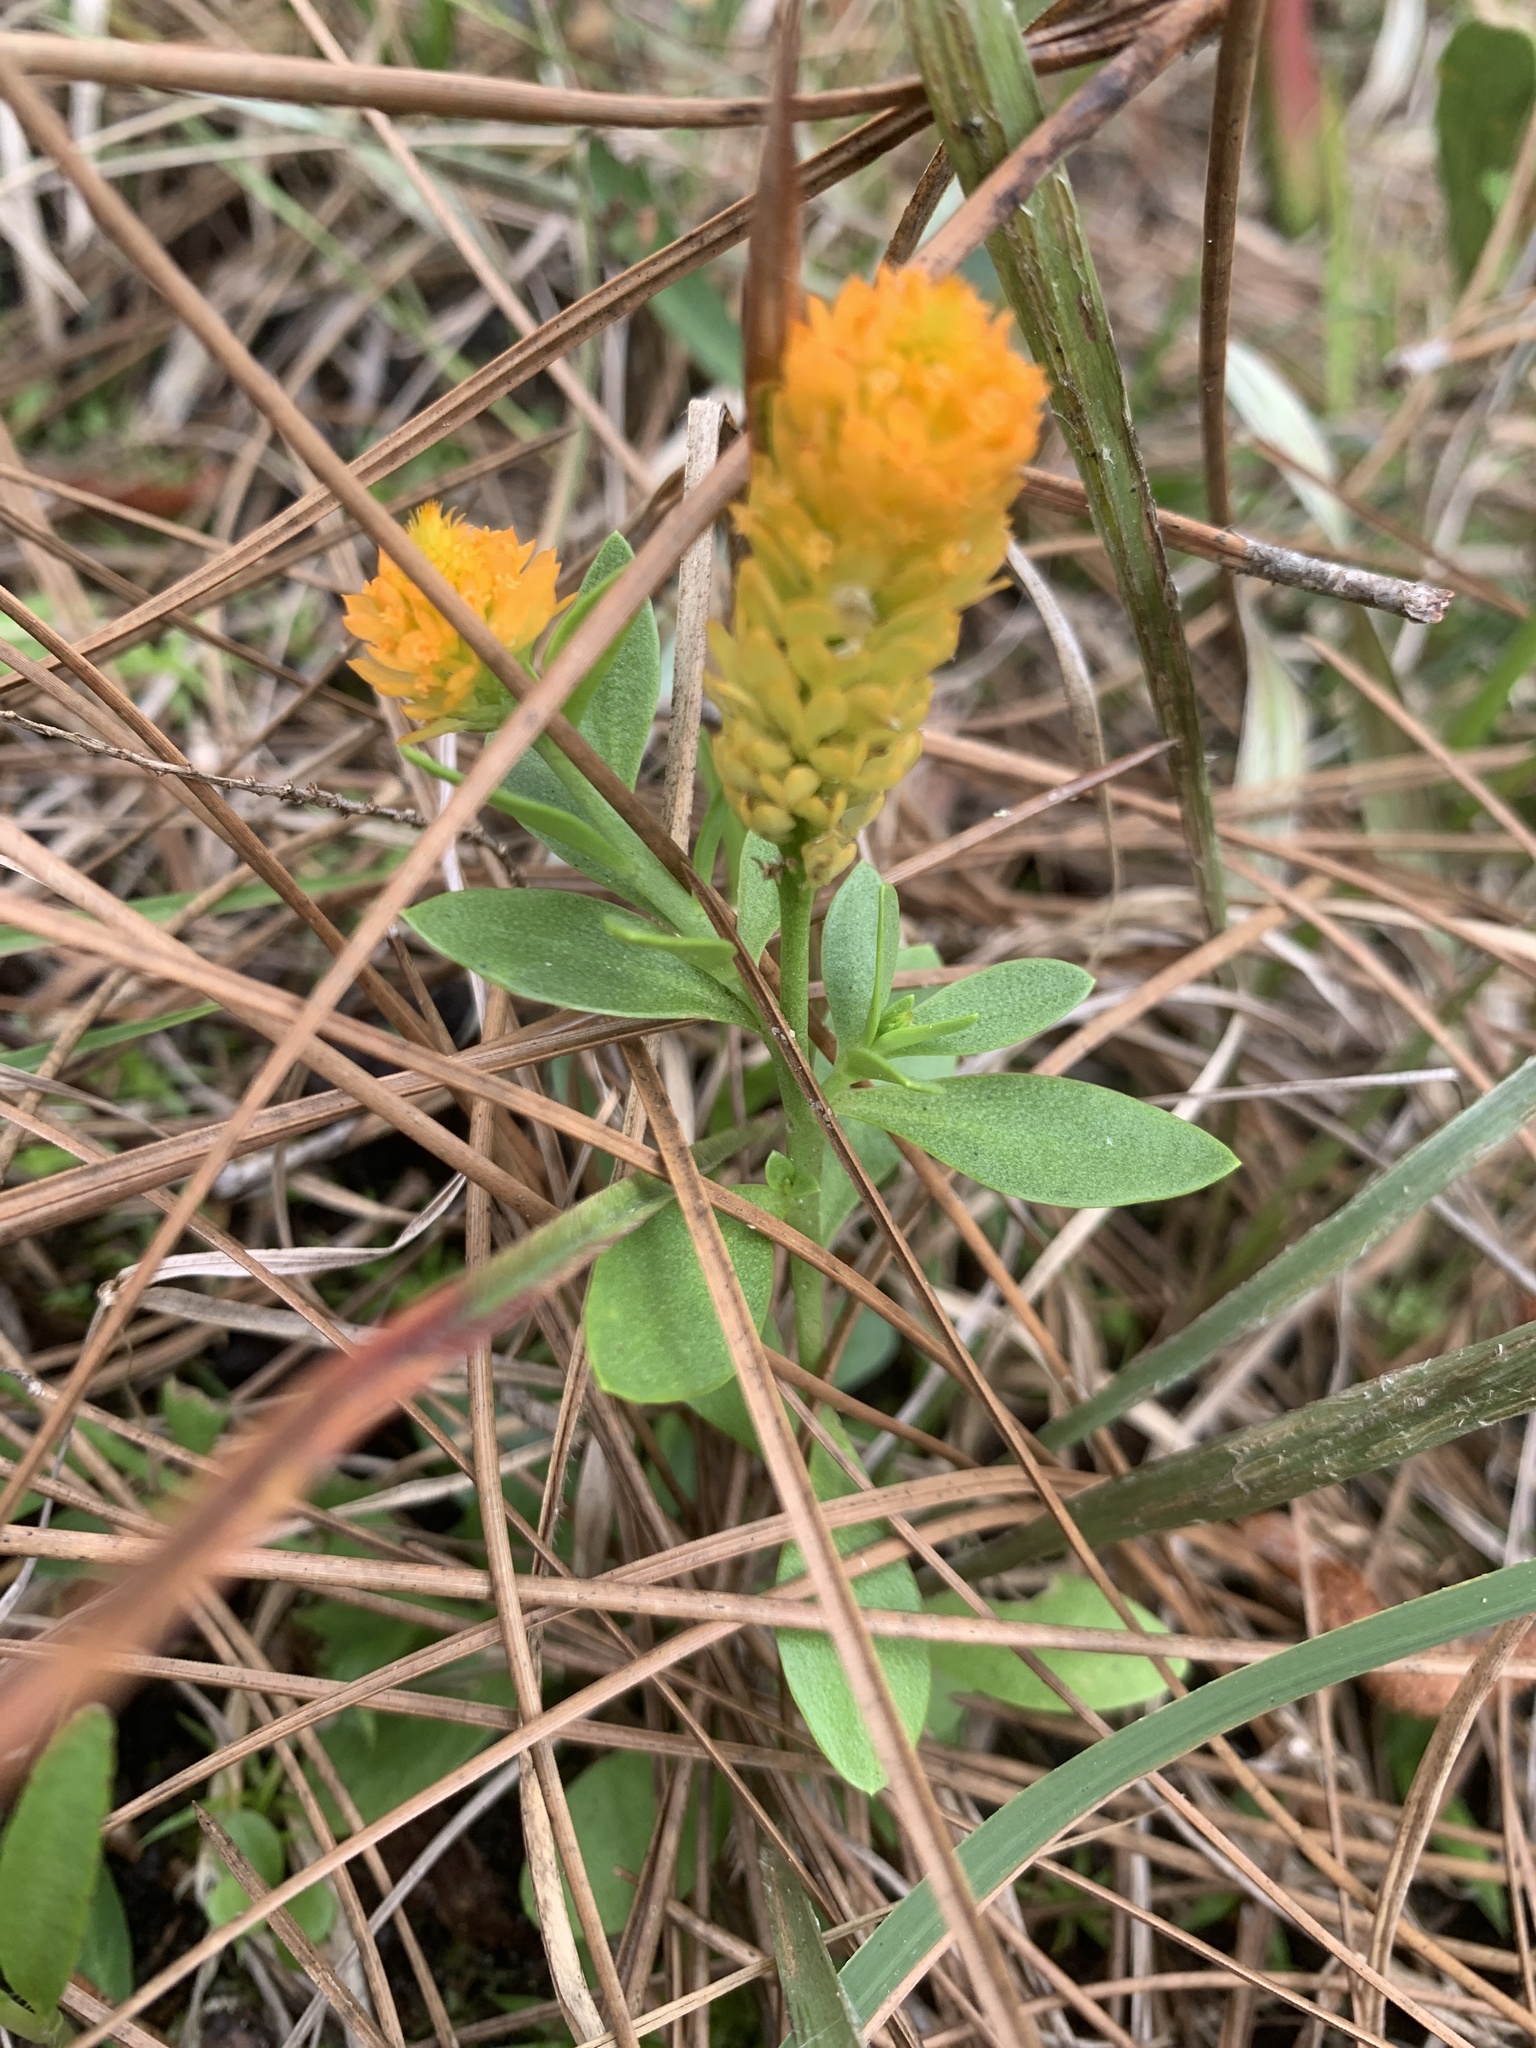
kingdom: Plantae
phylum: Tracheophyta
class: Magnoliopsida
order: Fabales
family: Polygalaceae
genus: Polygala
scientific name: Polygala lutea
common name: Orange milkwort
